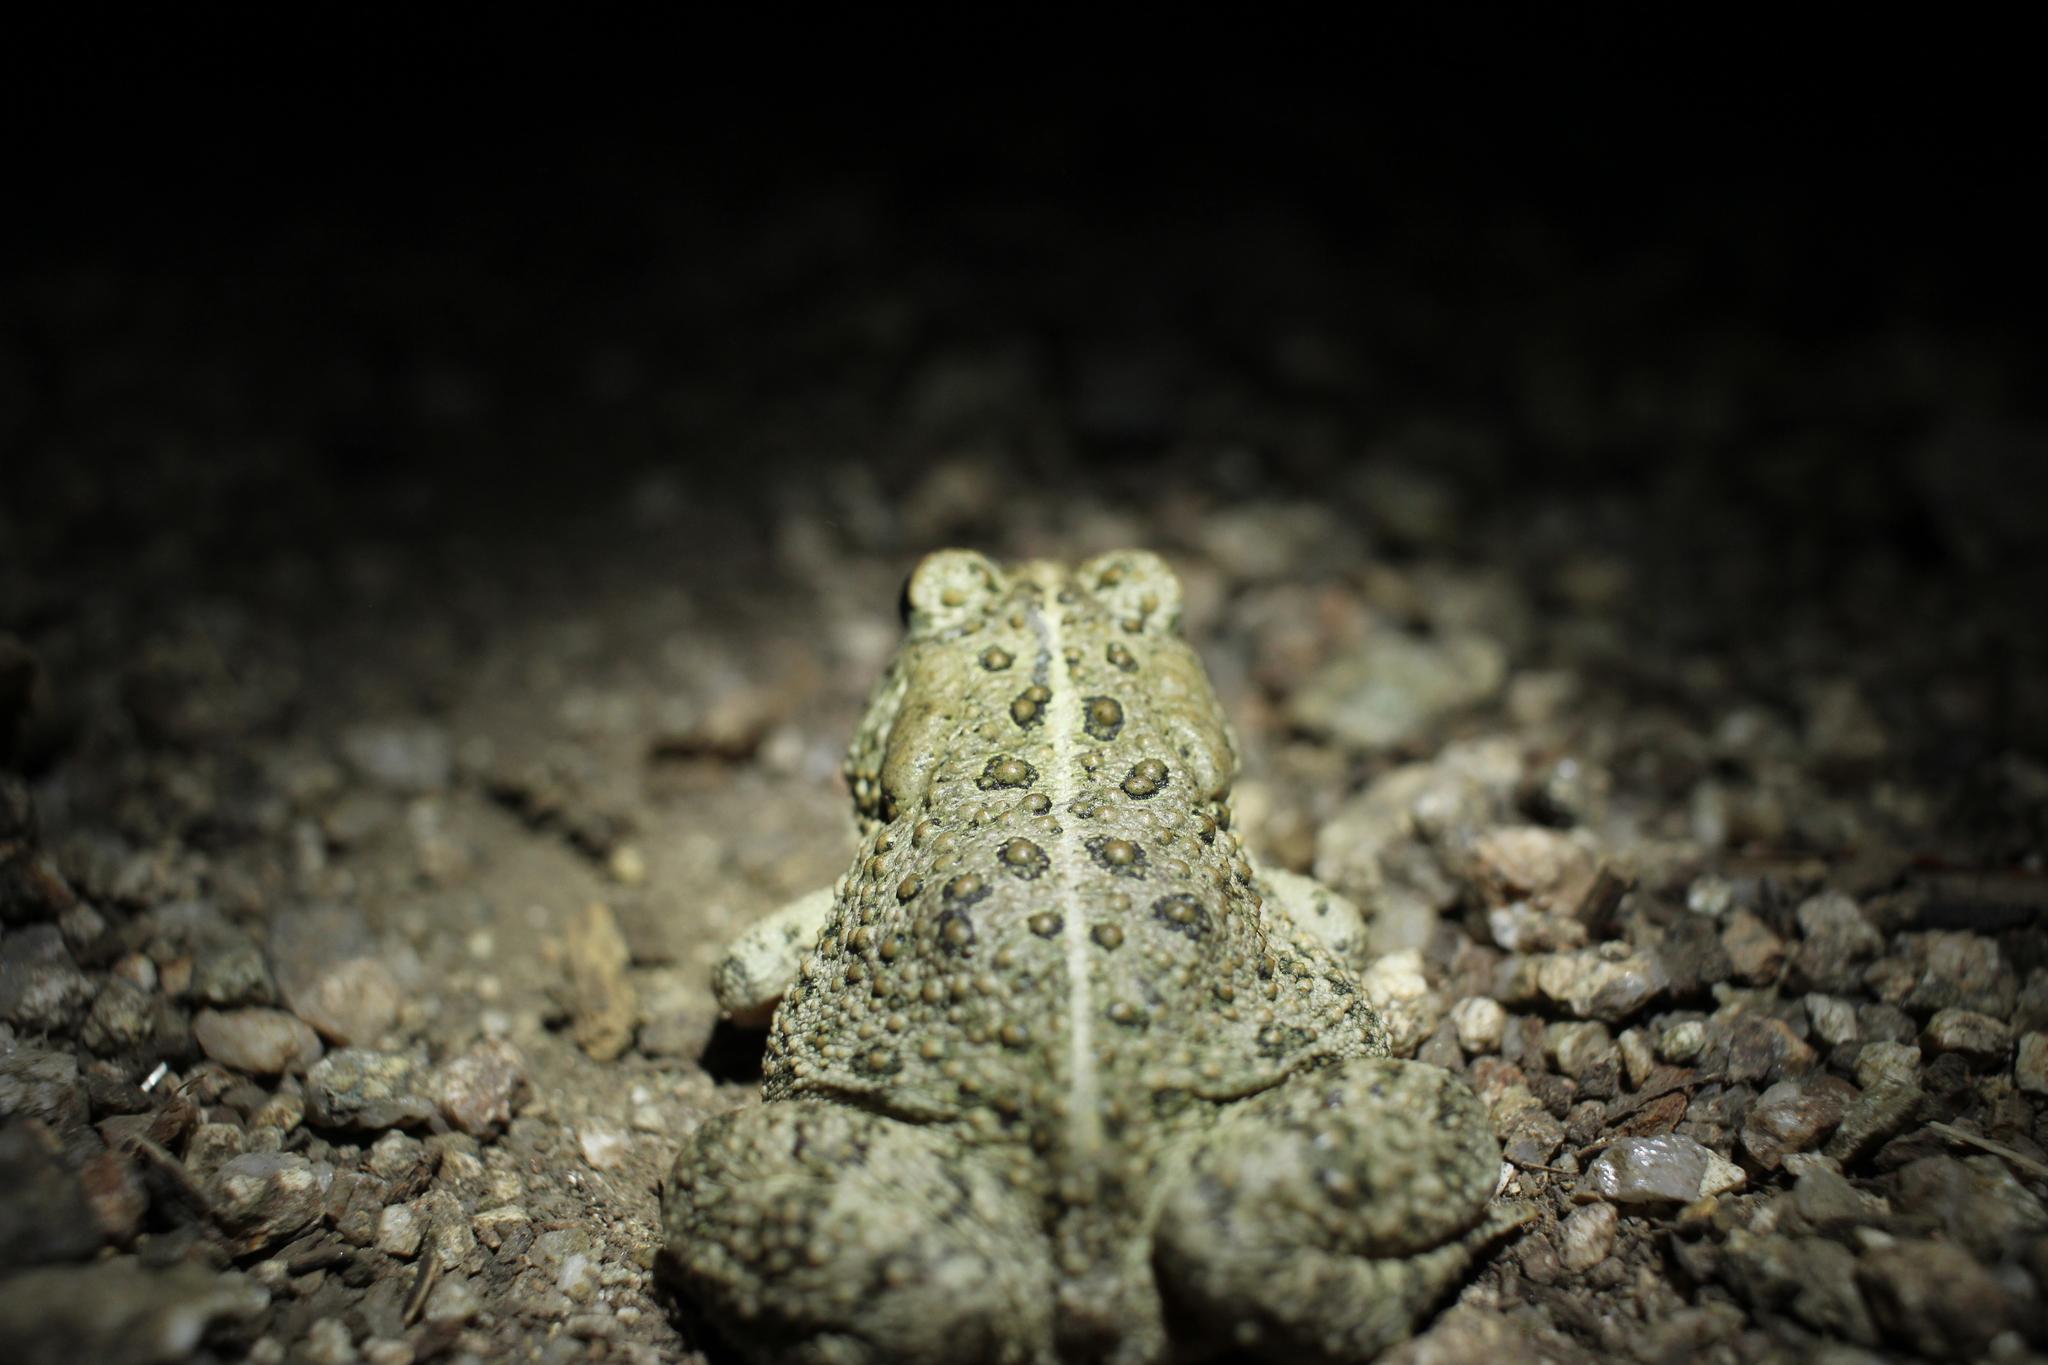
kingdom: Animalia
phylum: Chordata
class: Amphibia
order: Anura
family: Bufonidae
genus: Anaxyrus
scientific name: Anaxyrus woodhousii
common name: Woodhouse's toad
